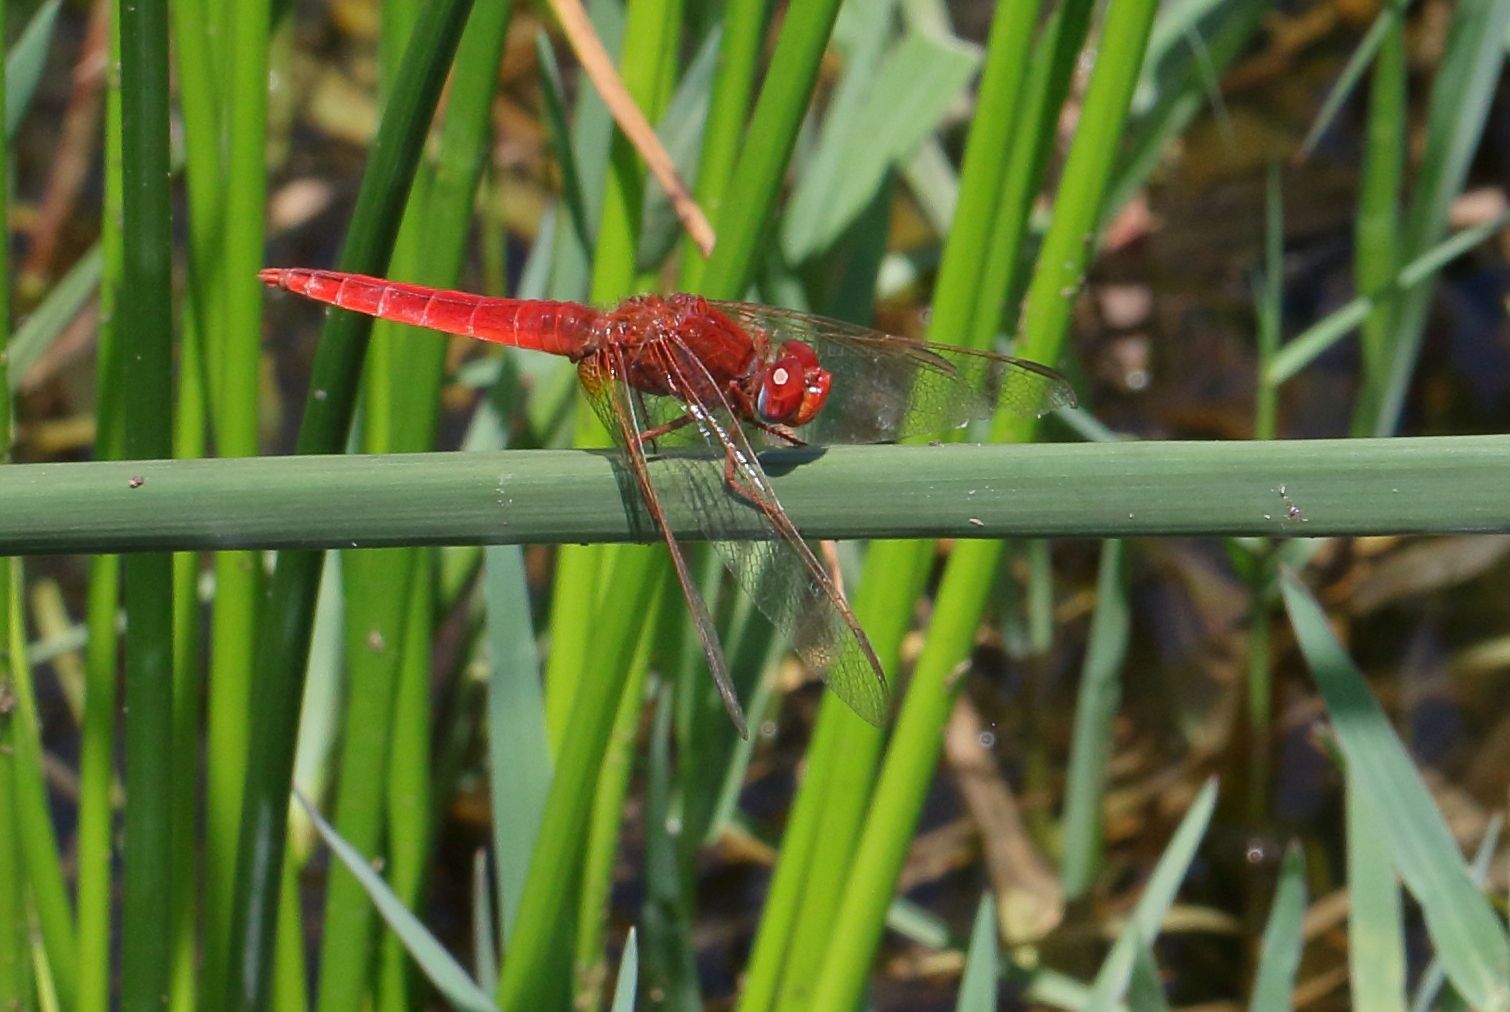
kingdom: Animalia
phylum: Arthropoda
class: Insecta
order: Odonata
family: Libellulidae
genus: Crocothemis
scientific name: Crocothemis erythraea
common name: Scarlet dragonfly
